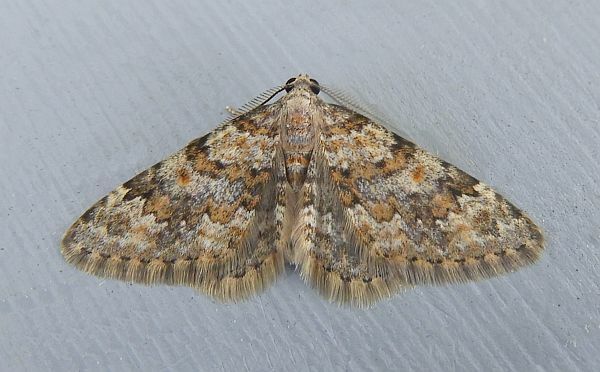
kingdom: Animalia
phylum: Arthropoda
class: Insecta
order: Lepidoptera
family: Geometridae
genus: Zenophleps
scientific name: Zenophleps obscurata
